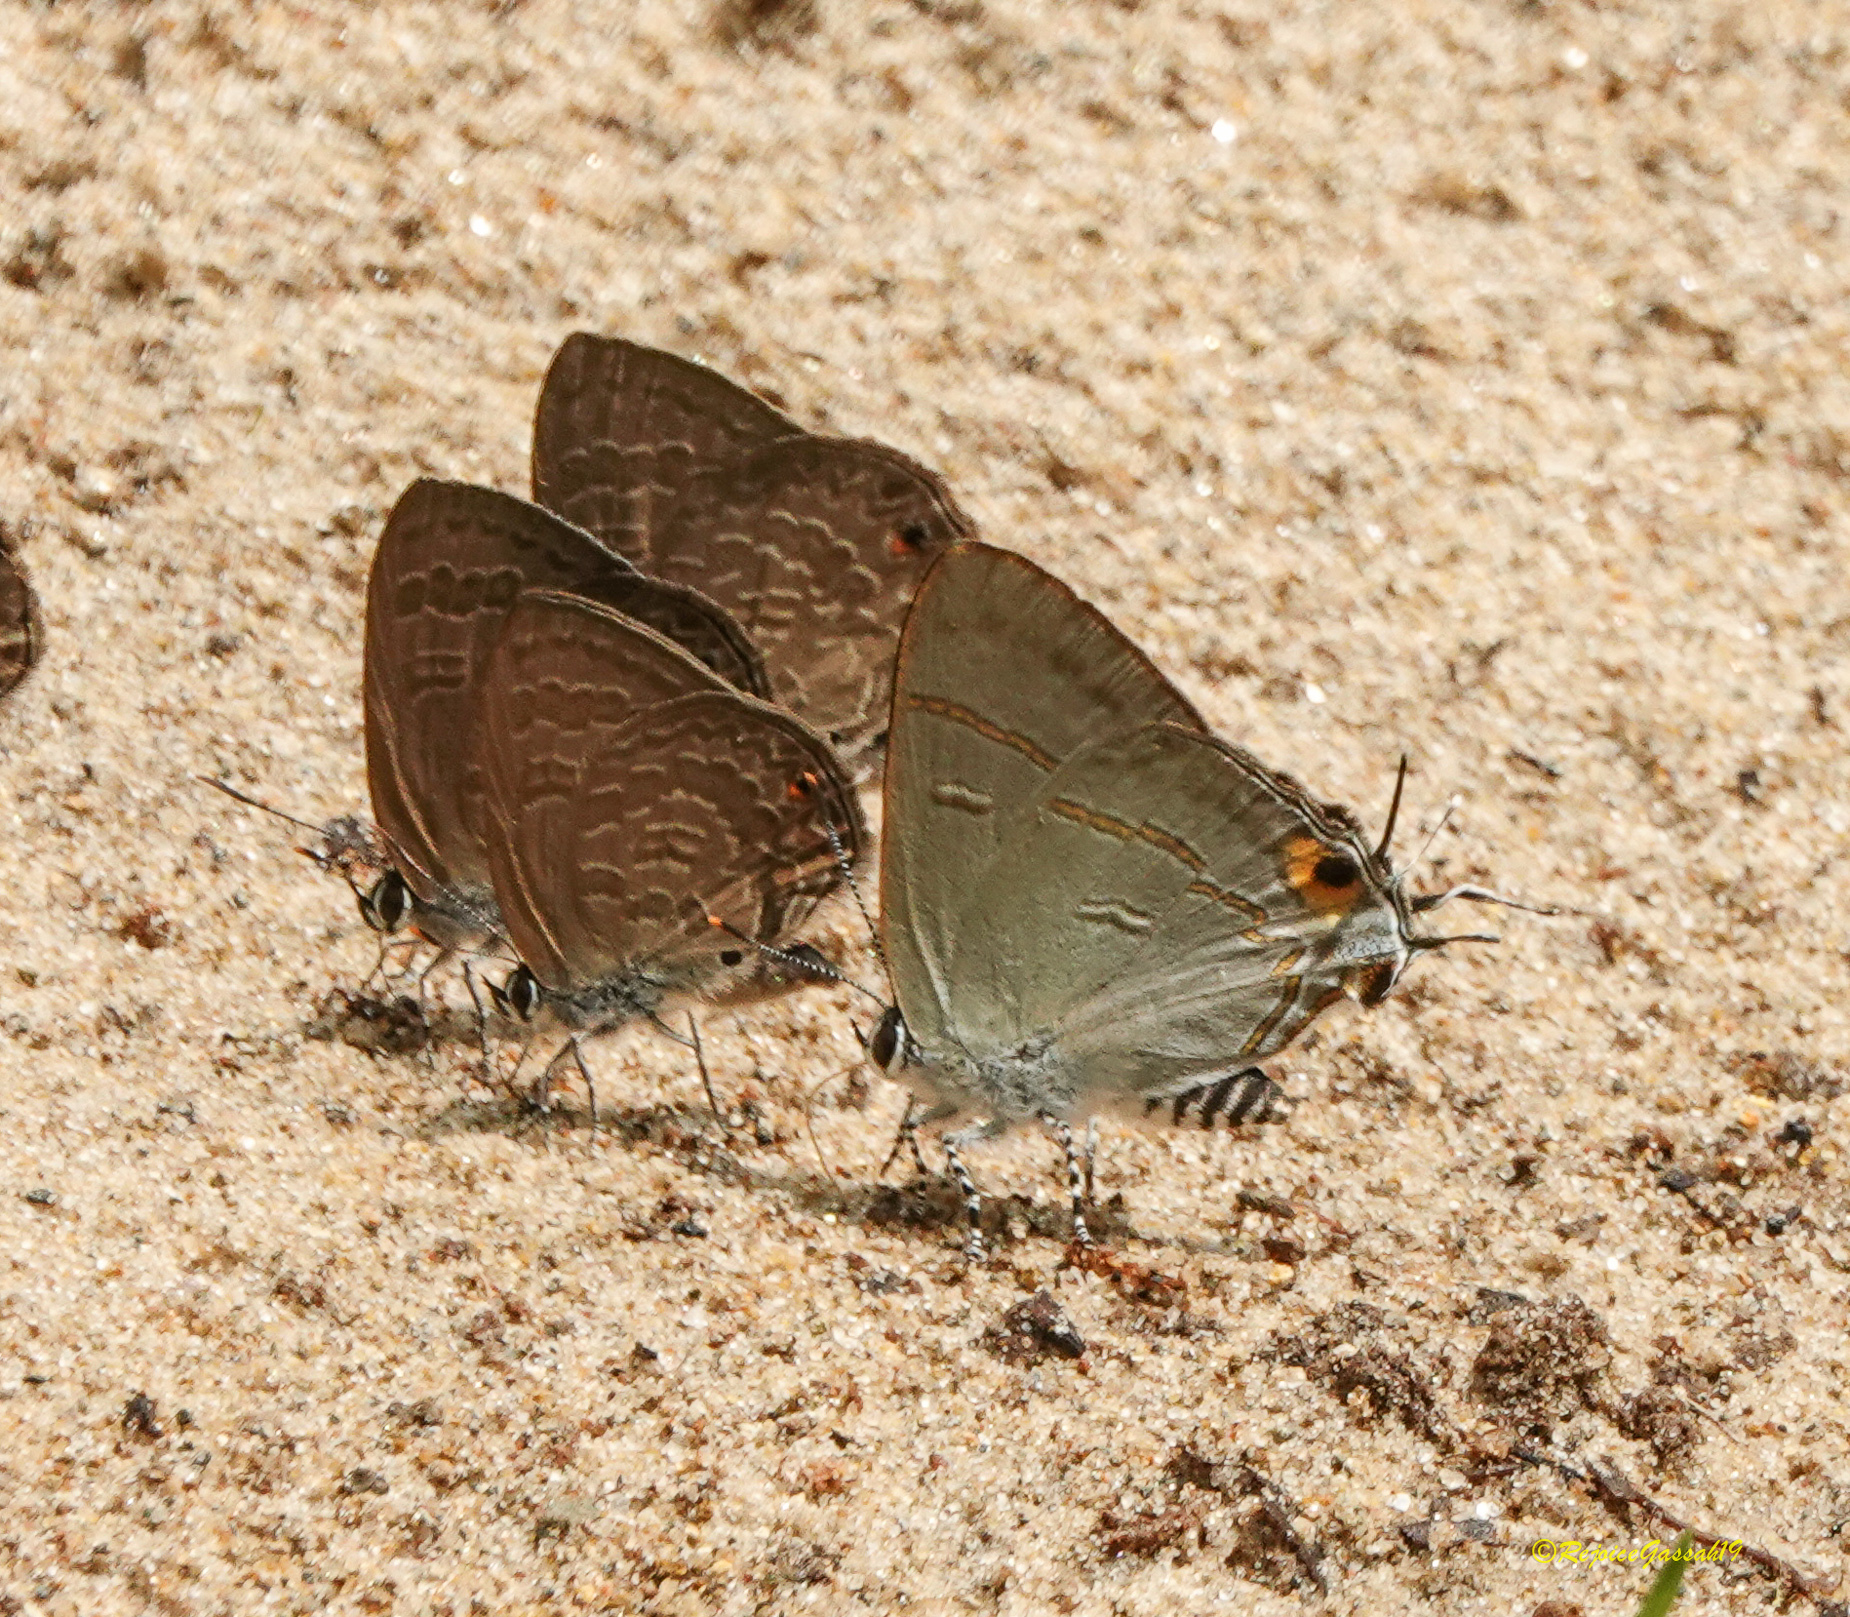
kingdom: Animalia
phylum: Arthropoda
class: Insecta
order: Lepidoptera
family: Lycaenidae
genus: Hypolycaena
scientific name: Hypolycaena erylus
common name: Common tit
